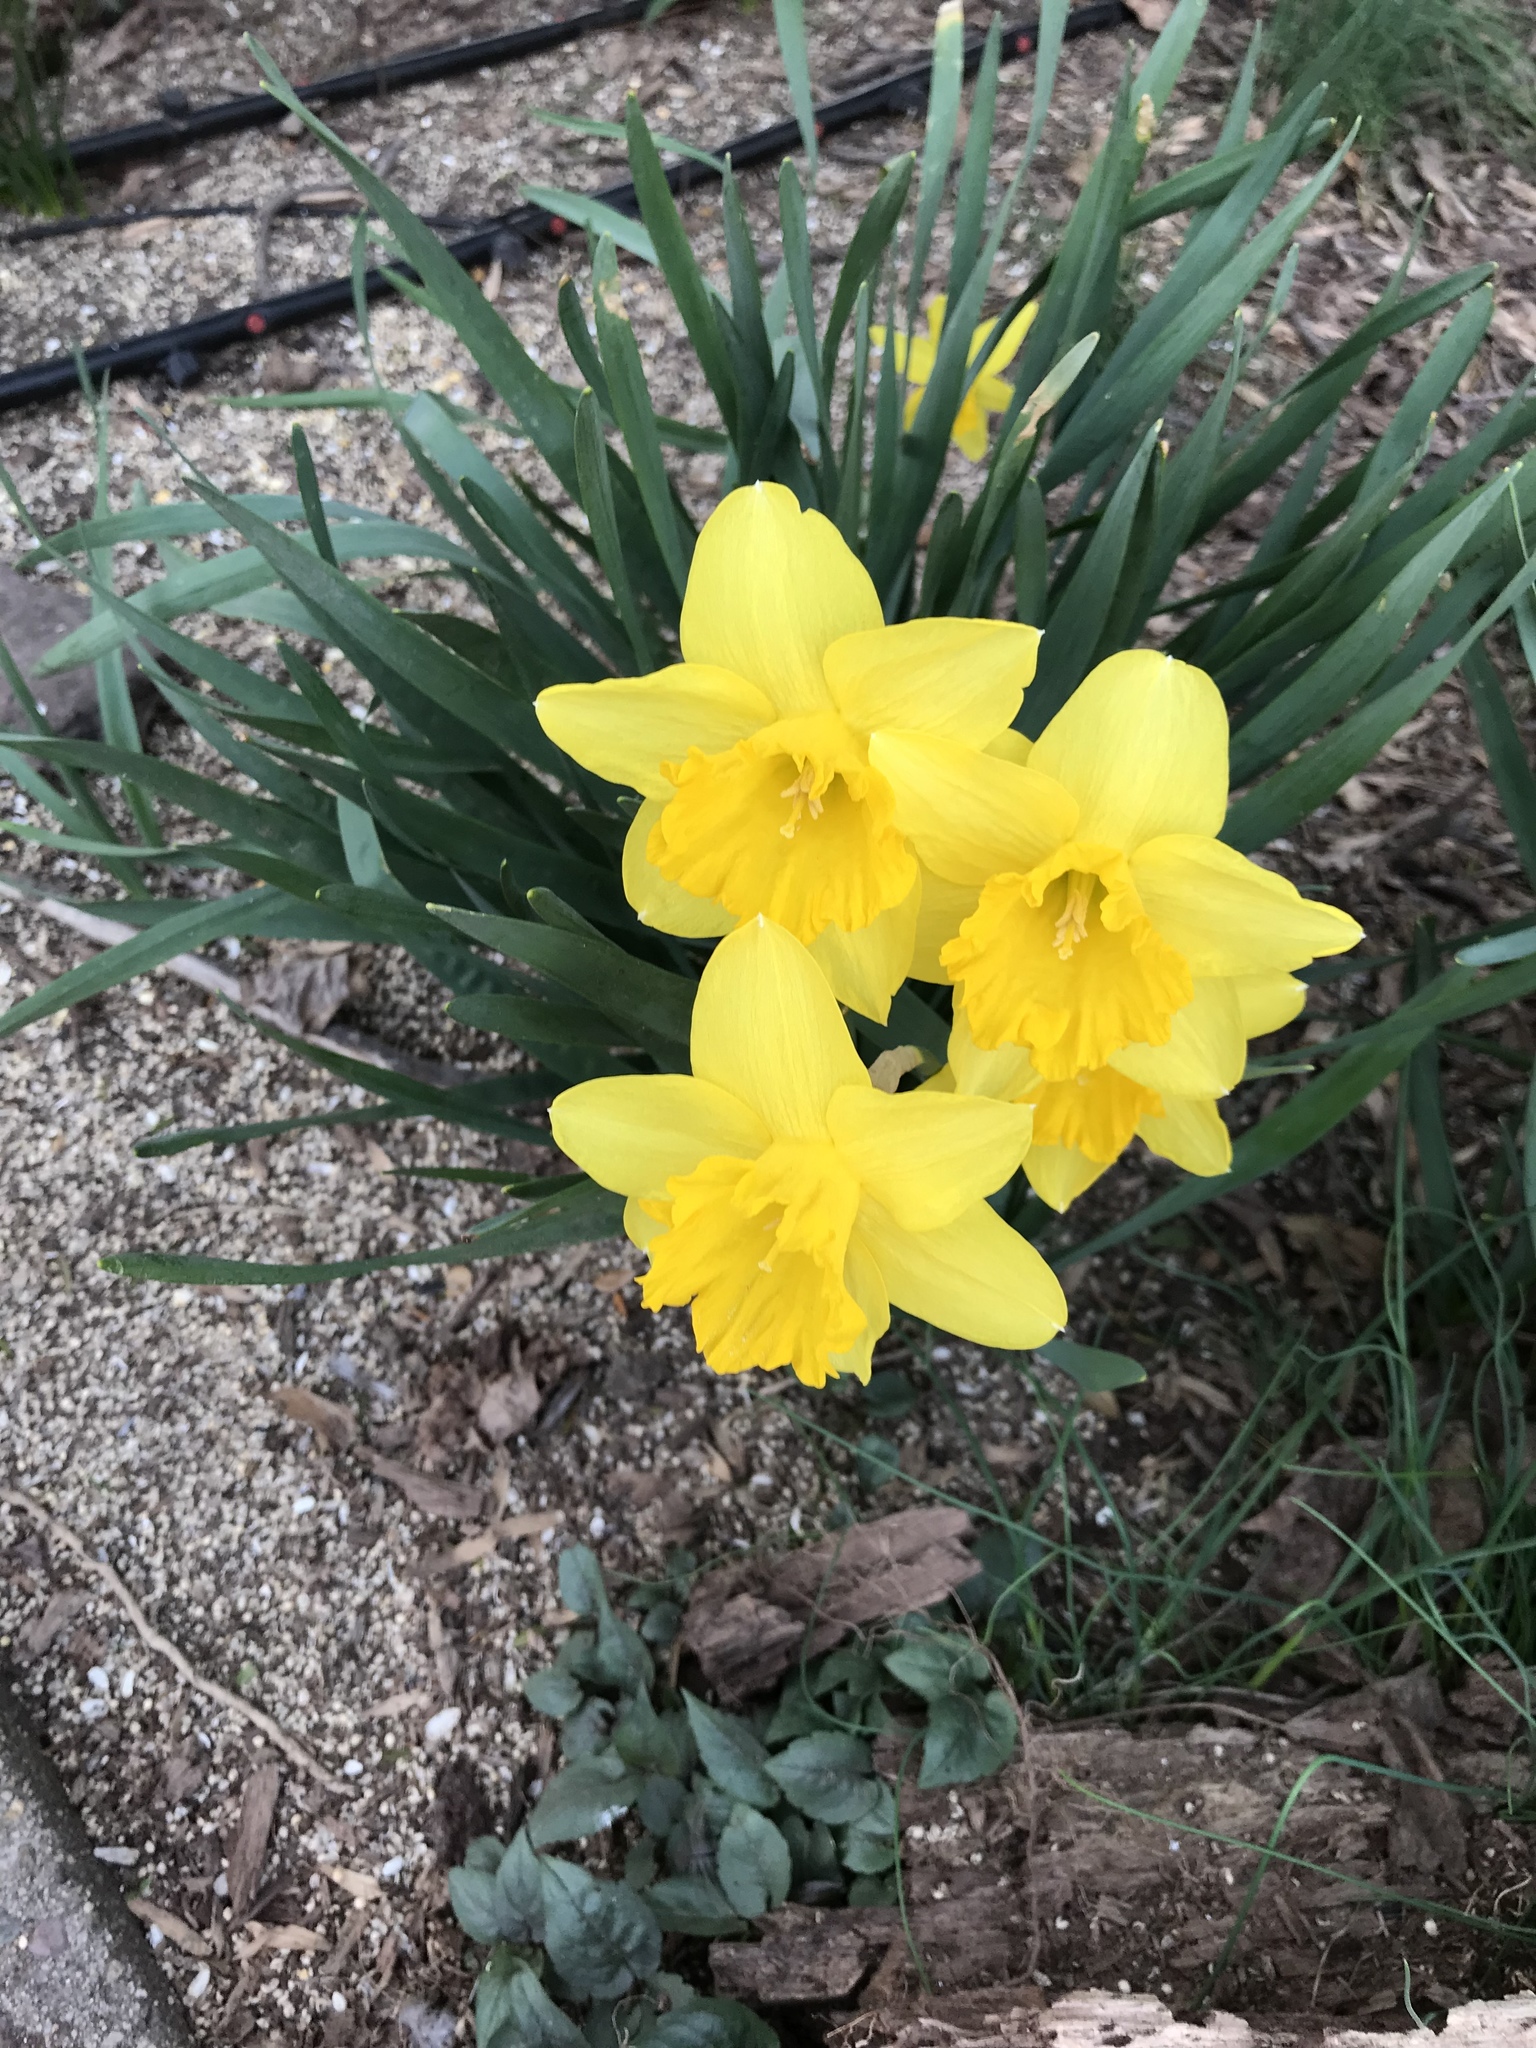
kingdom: Plantae
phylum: Tracheophyta
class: Liliopsida
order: Asparagales
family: Amaryllidaceae
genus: Narcissus
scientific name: Narcissus
